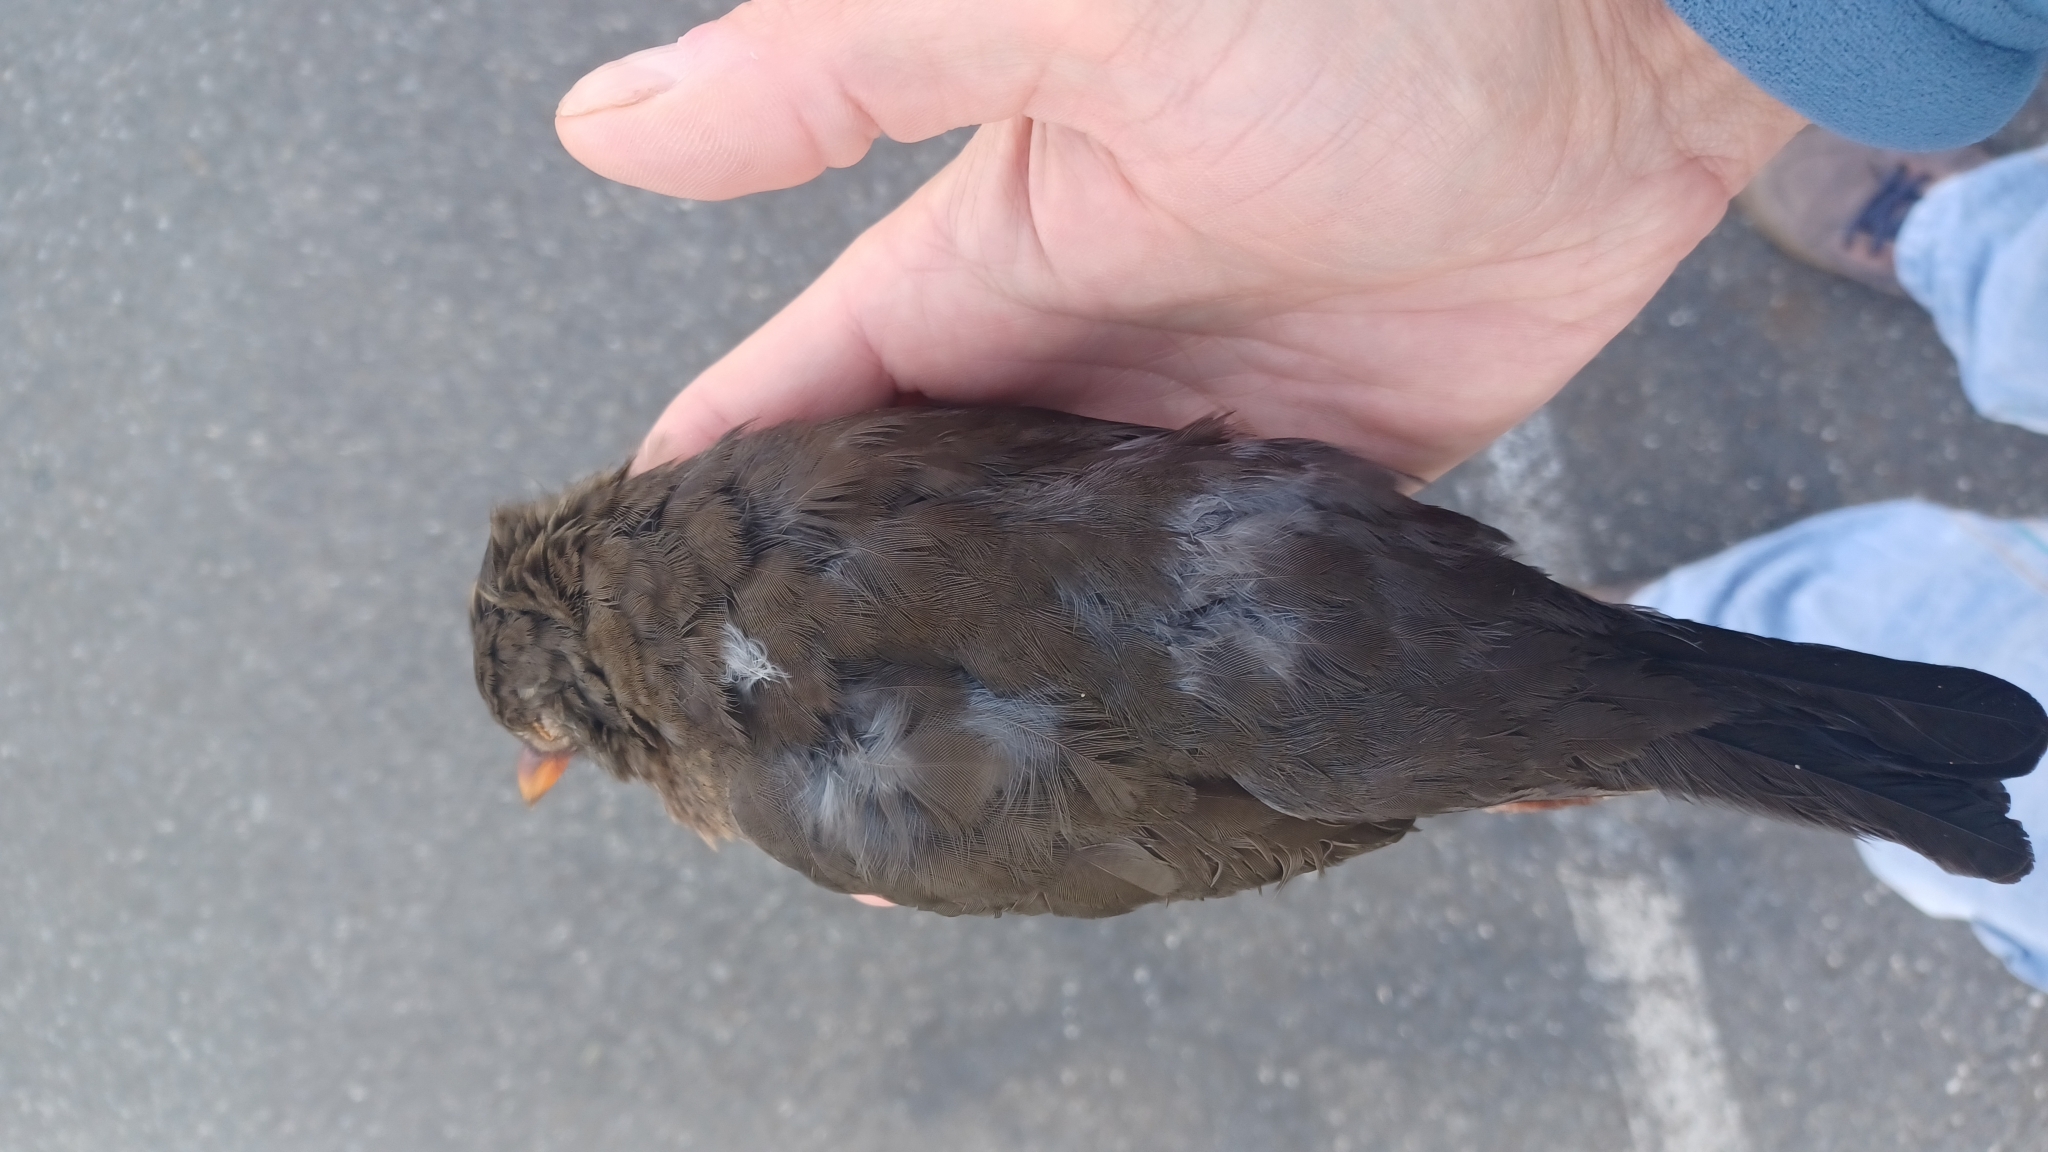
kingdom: Animalia
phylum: Chordata
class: Aves
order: Passeriformes
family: Turdidae
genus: Turdus
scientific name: Turdus merula
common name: Common blackbird
